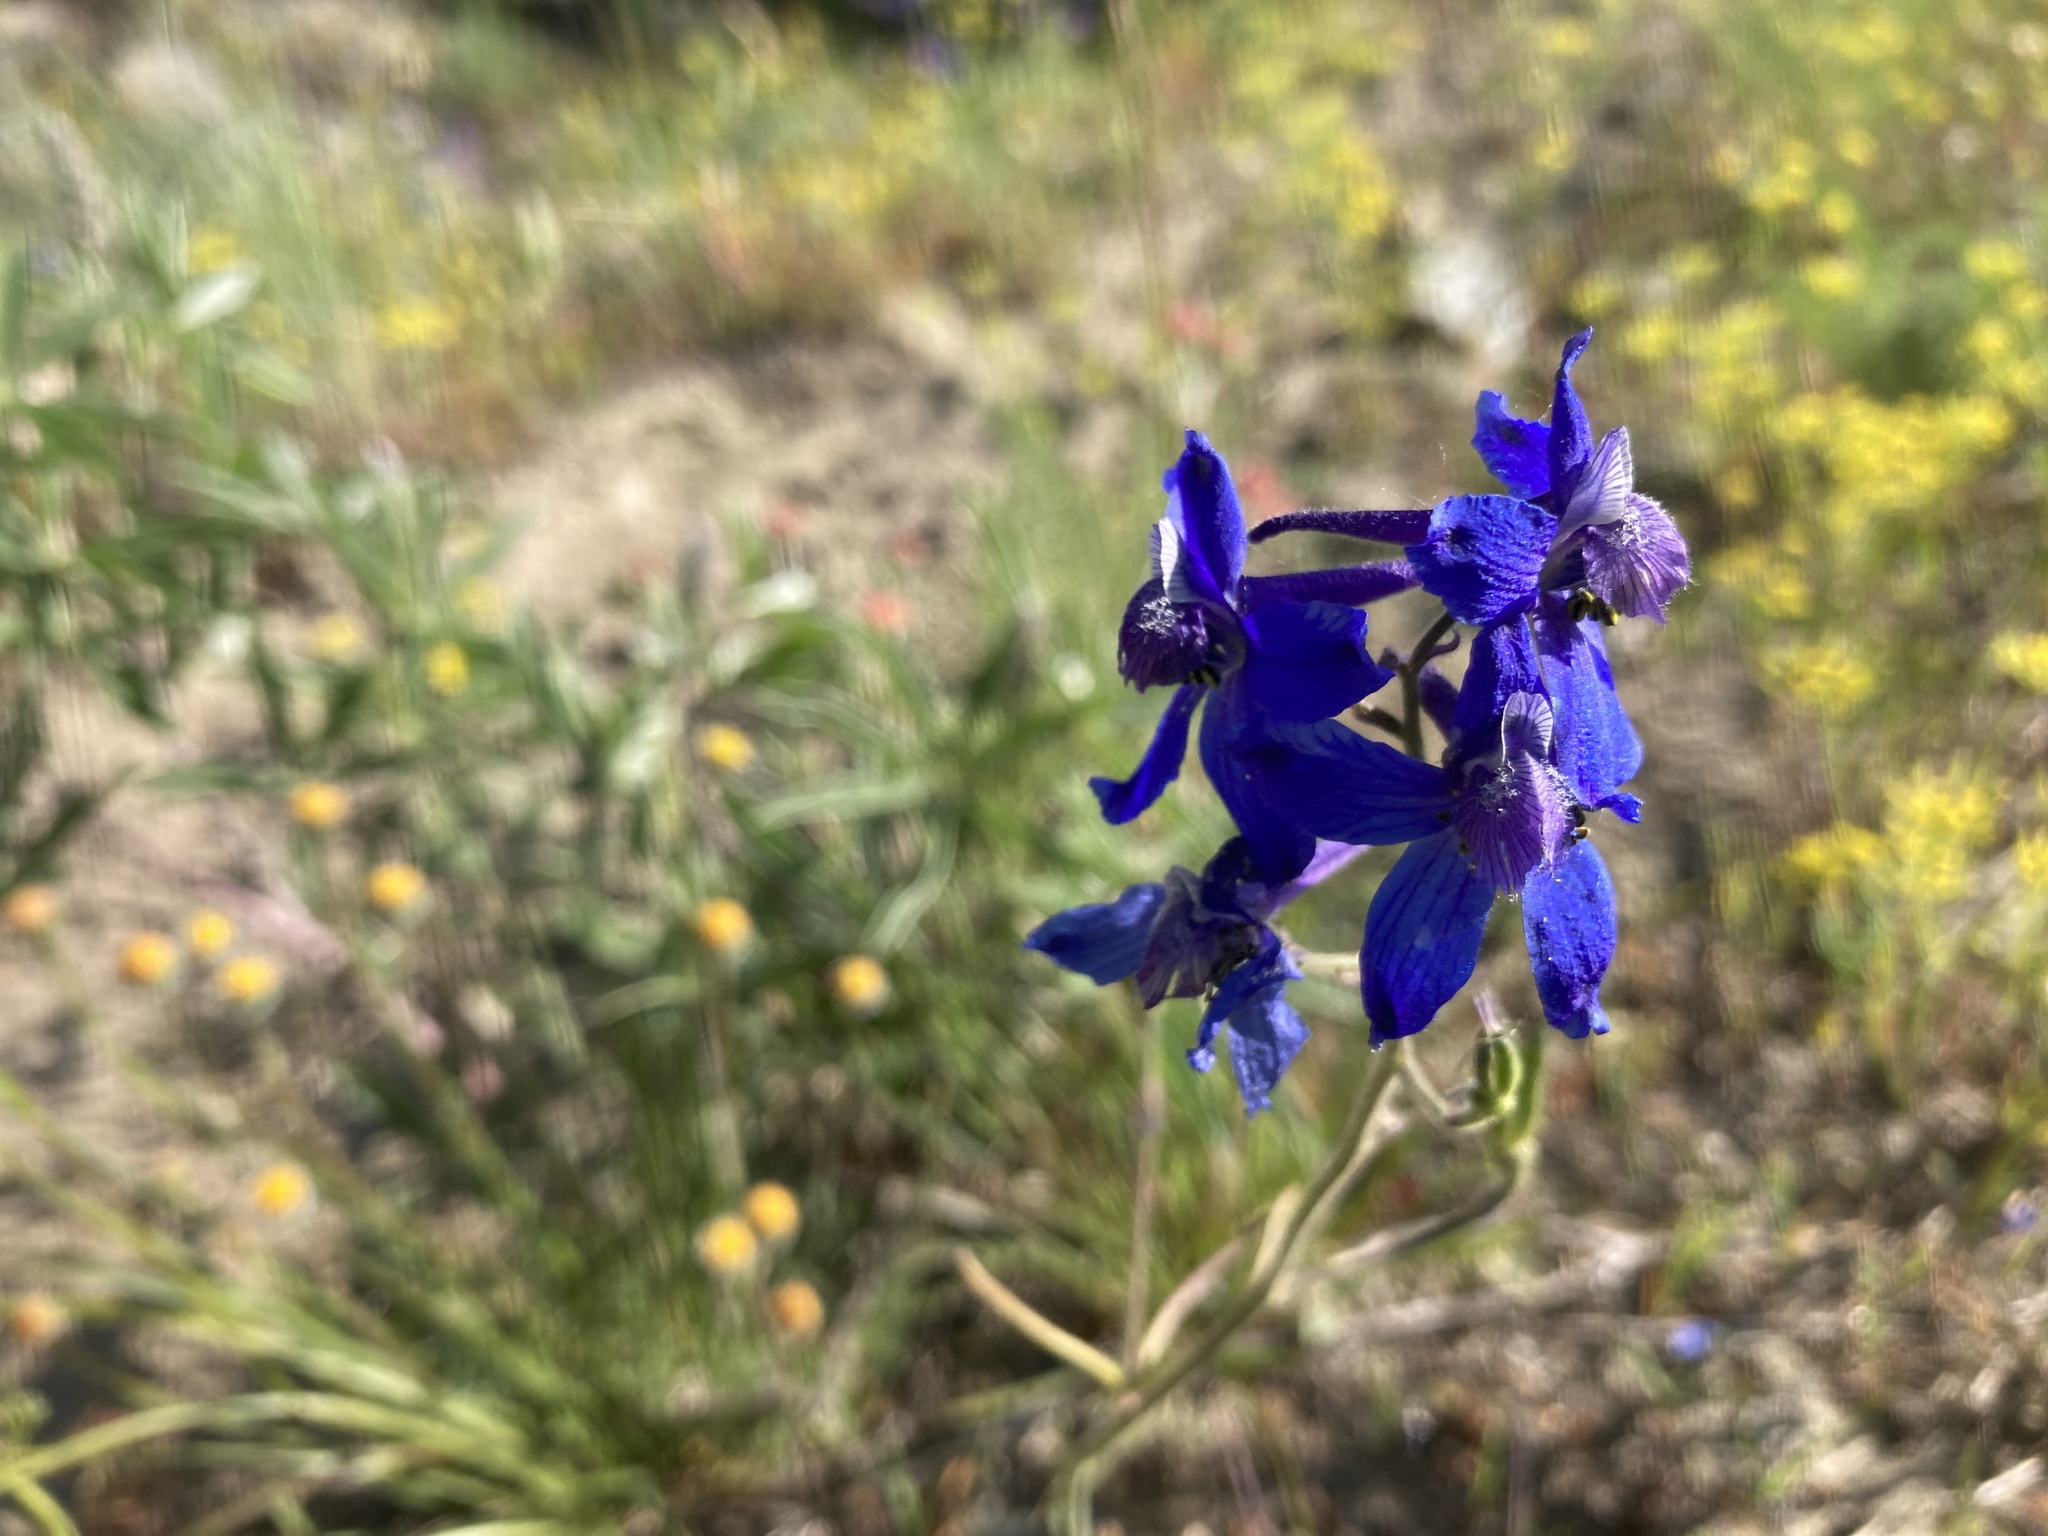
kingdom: Plantae
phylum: Tracheophyta
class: Magnoliopsida
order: Ranunculales
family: Ranunculaceae
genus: Delphinium
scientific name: Delphinium nuttallianum
